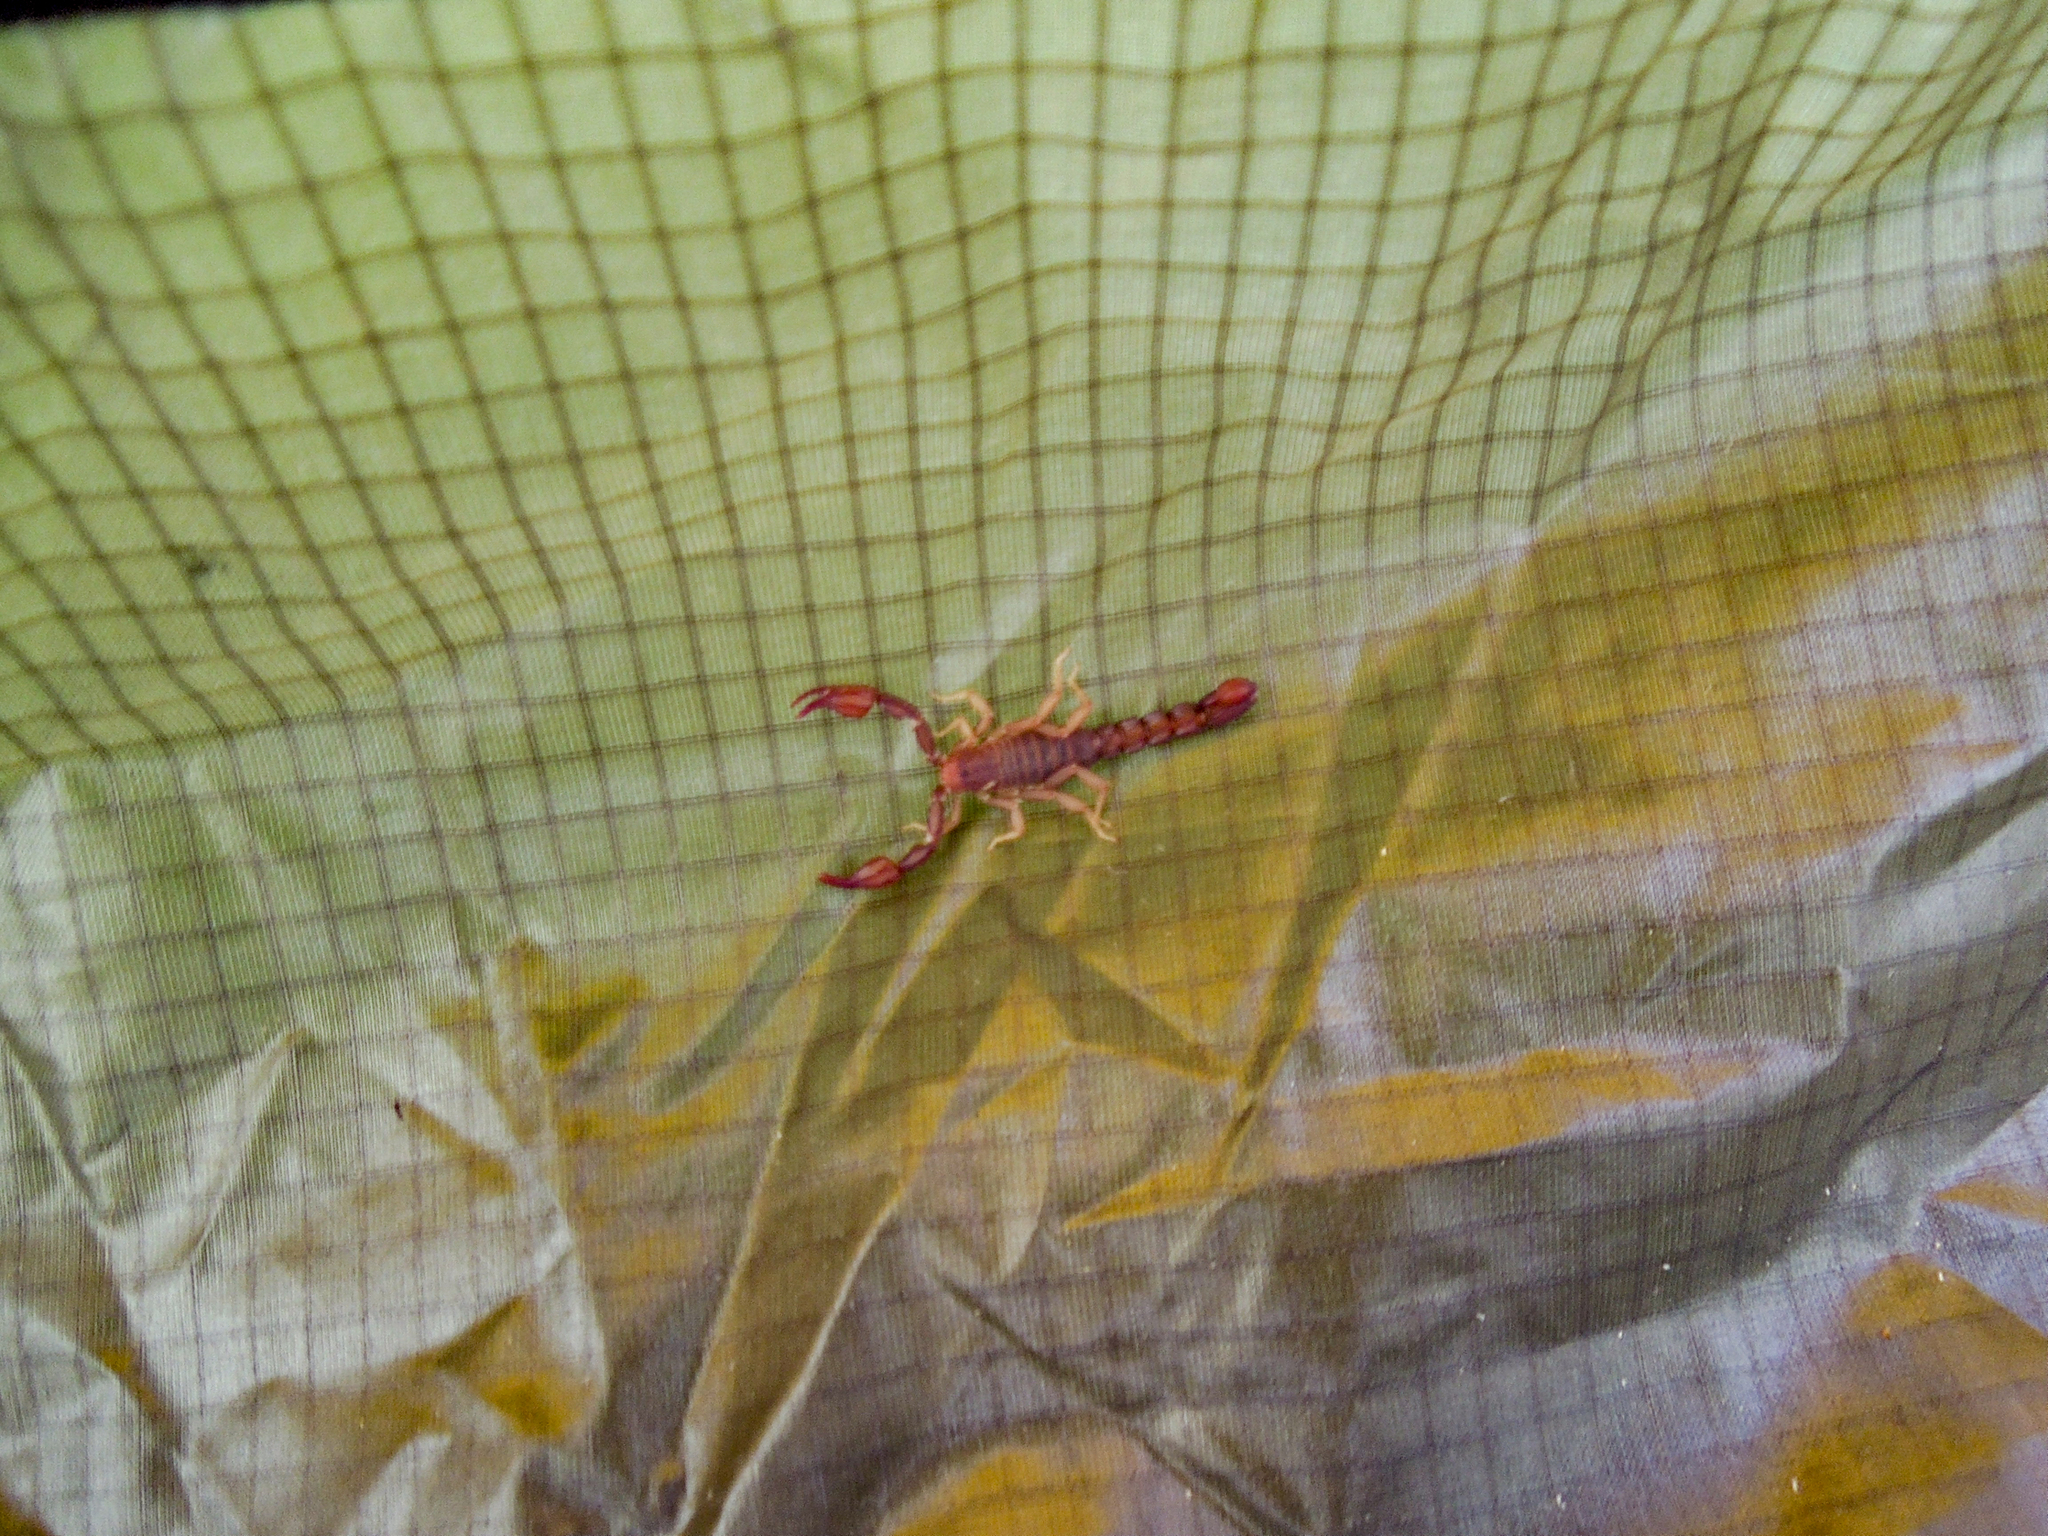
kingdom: Animalia
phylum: Arthropoda
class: Arachnida
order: Scorpiones
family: Vaejovidae
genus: Catalinia
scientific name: Catalinia minima
